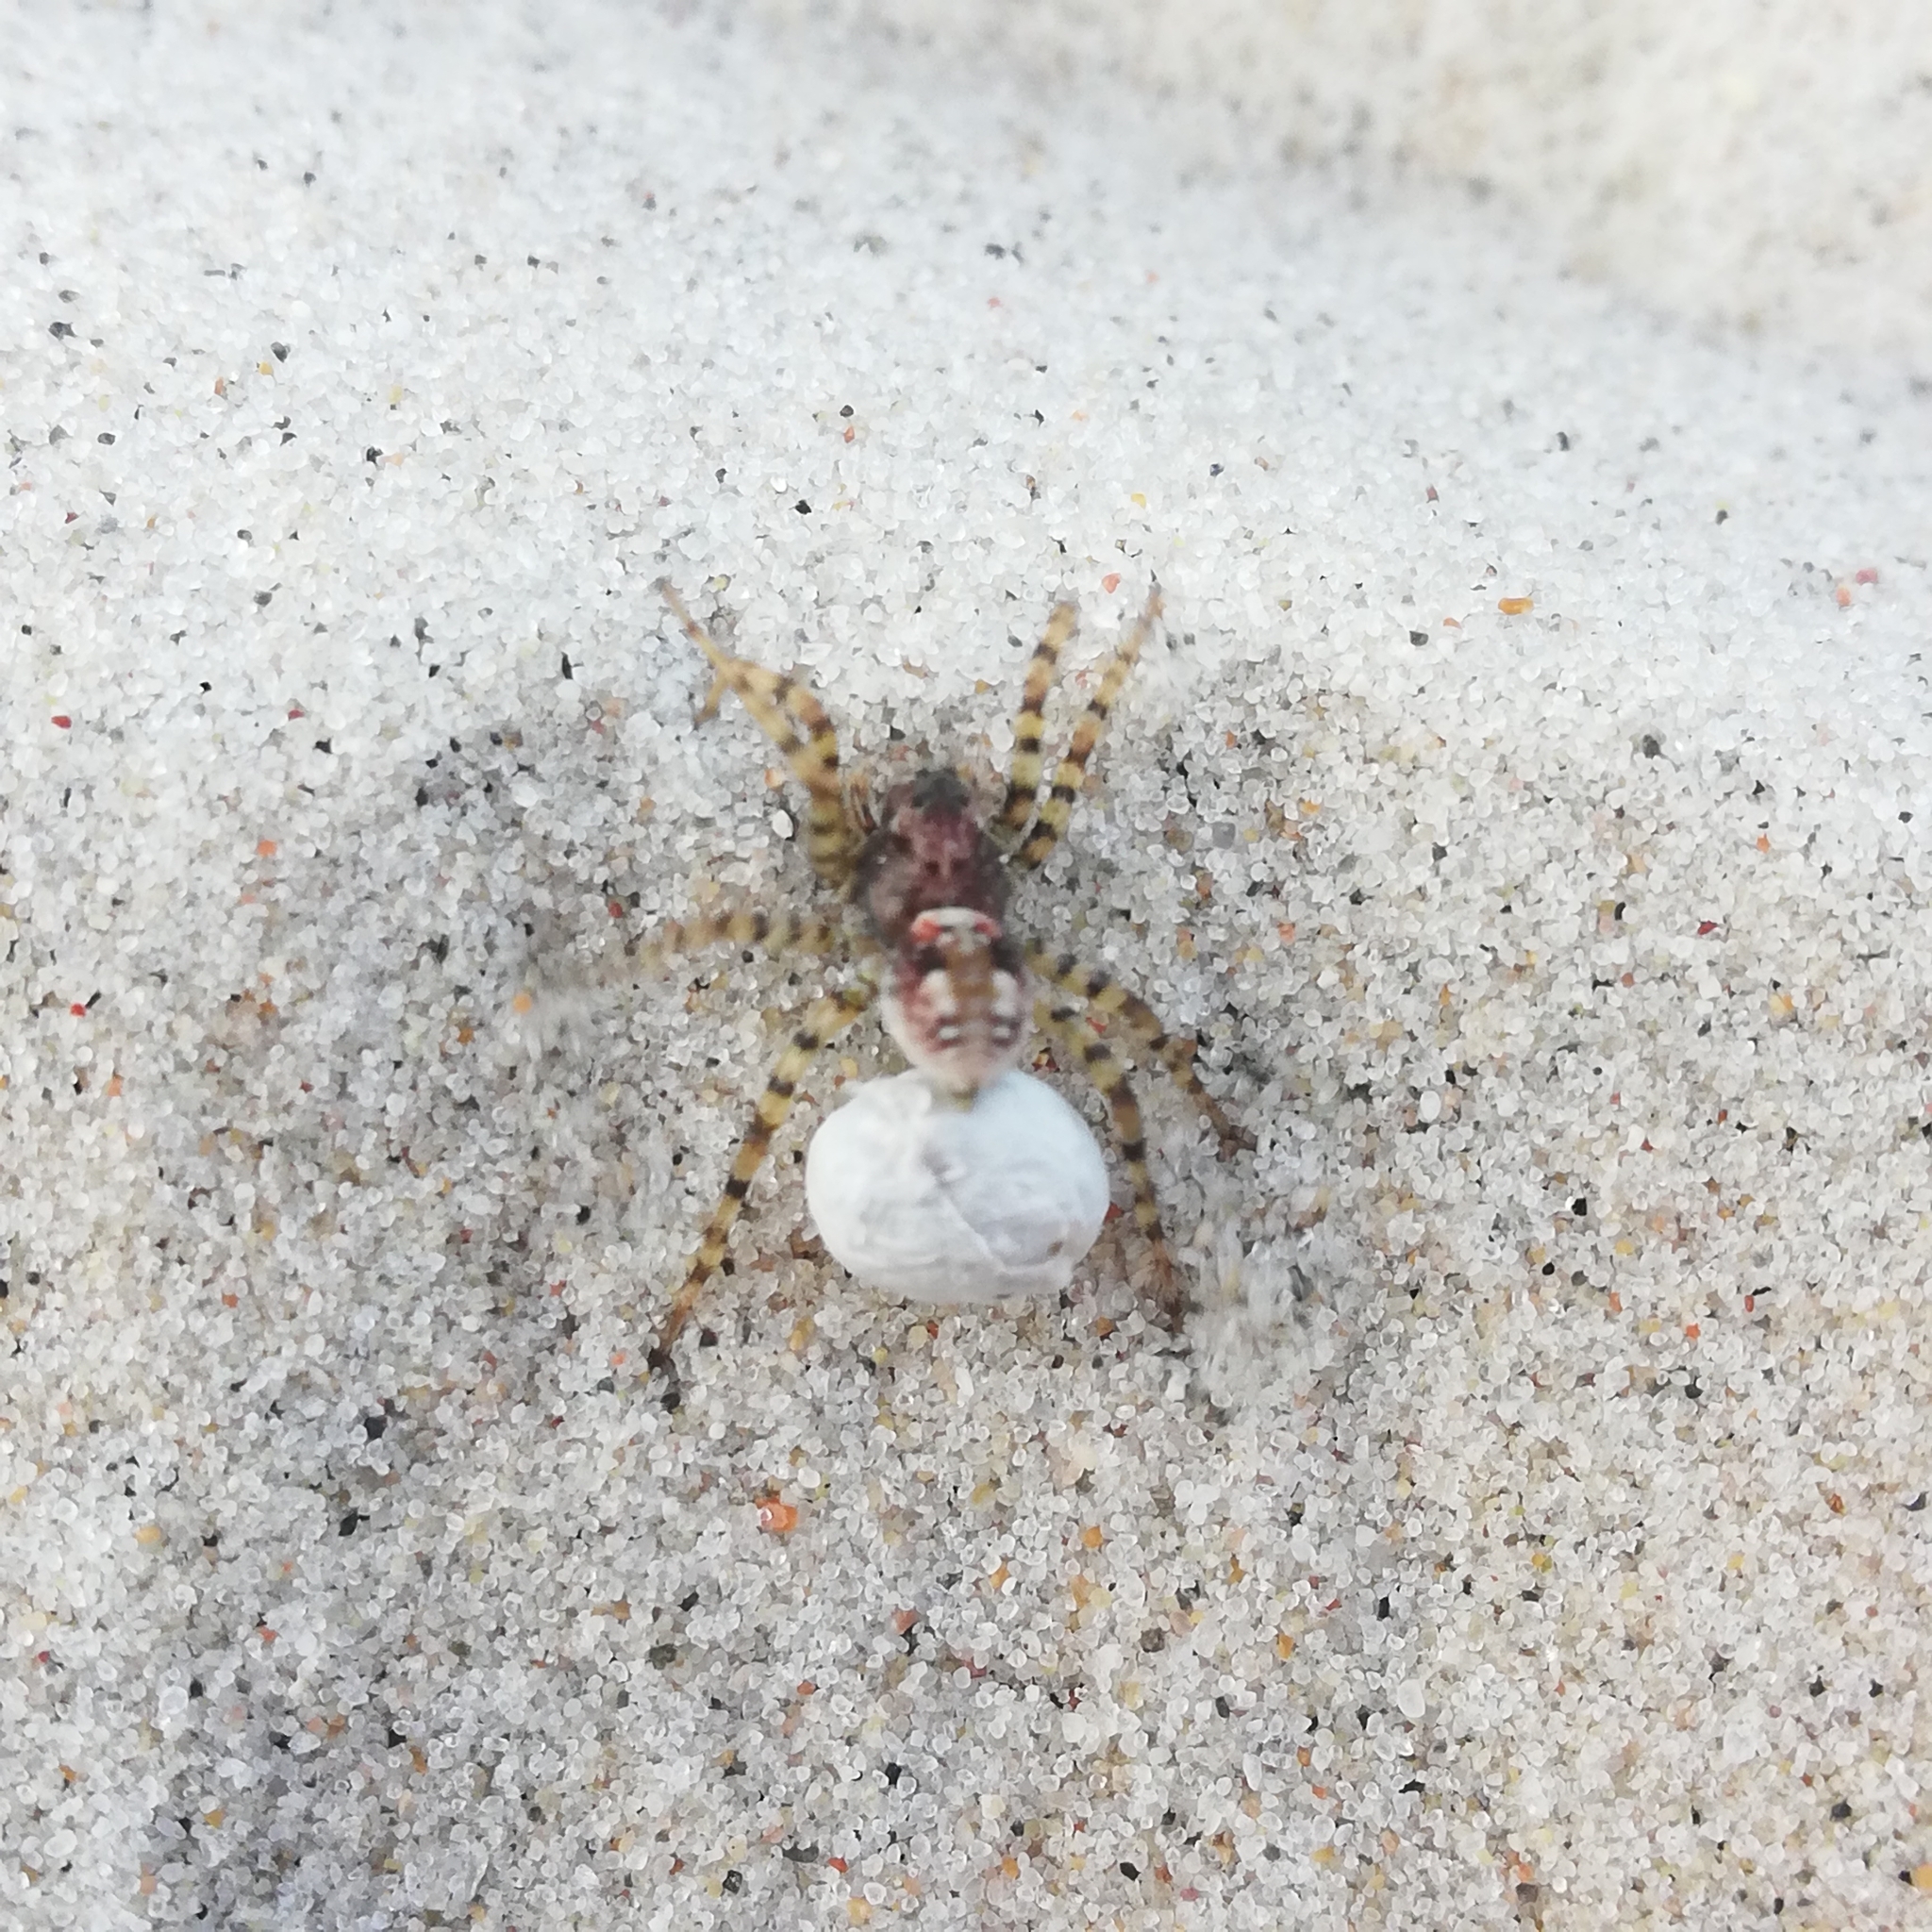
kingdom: Animalia
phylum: Arthropoda
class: Arachnida
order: Araneae
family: Lycosidae
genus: Arctosa
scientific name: Arctosa perita
